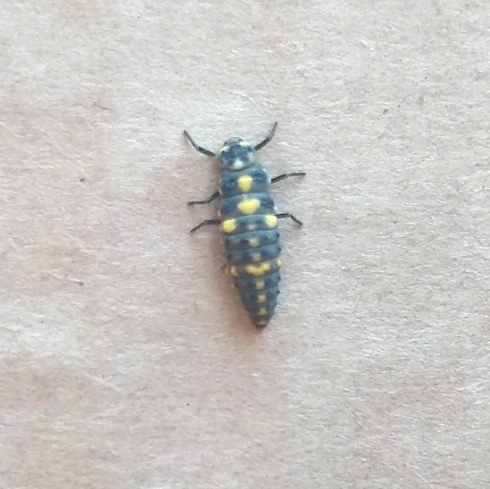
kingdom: Animalia
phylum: Arthropoda
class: Insecta
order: Coleoptera
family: Coccinellidae
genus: Cycloneda
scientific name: Cycloneda sanguinea
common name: Ladybird beetle
